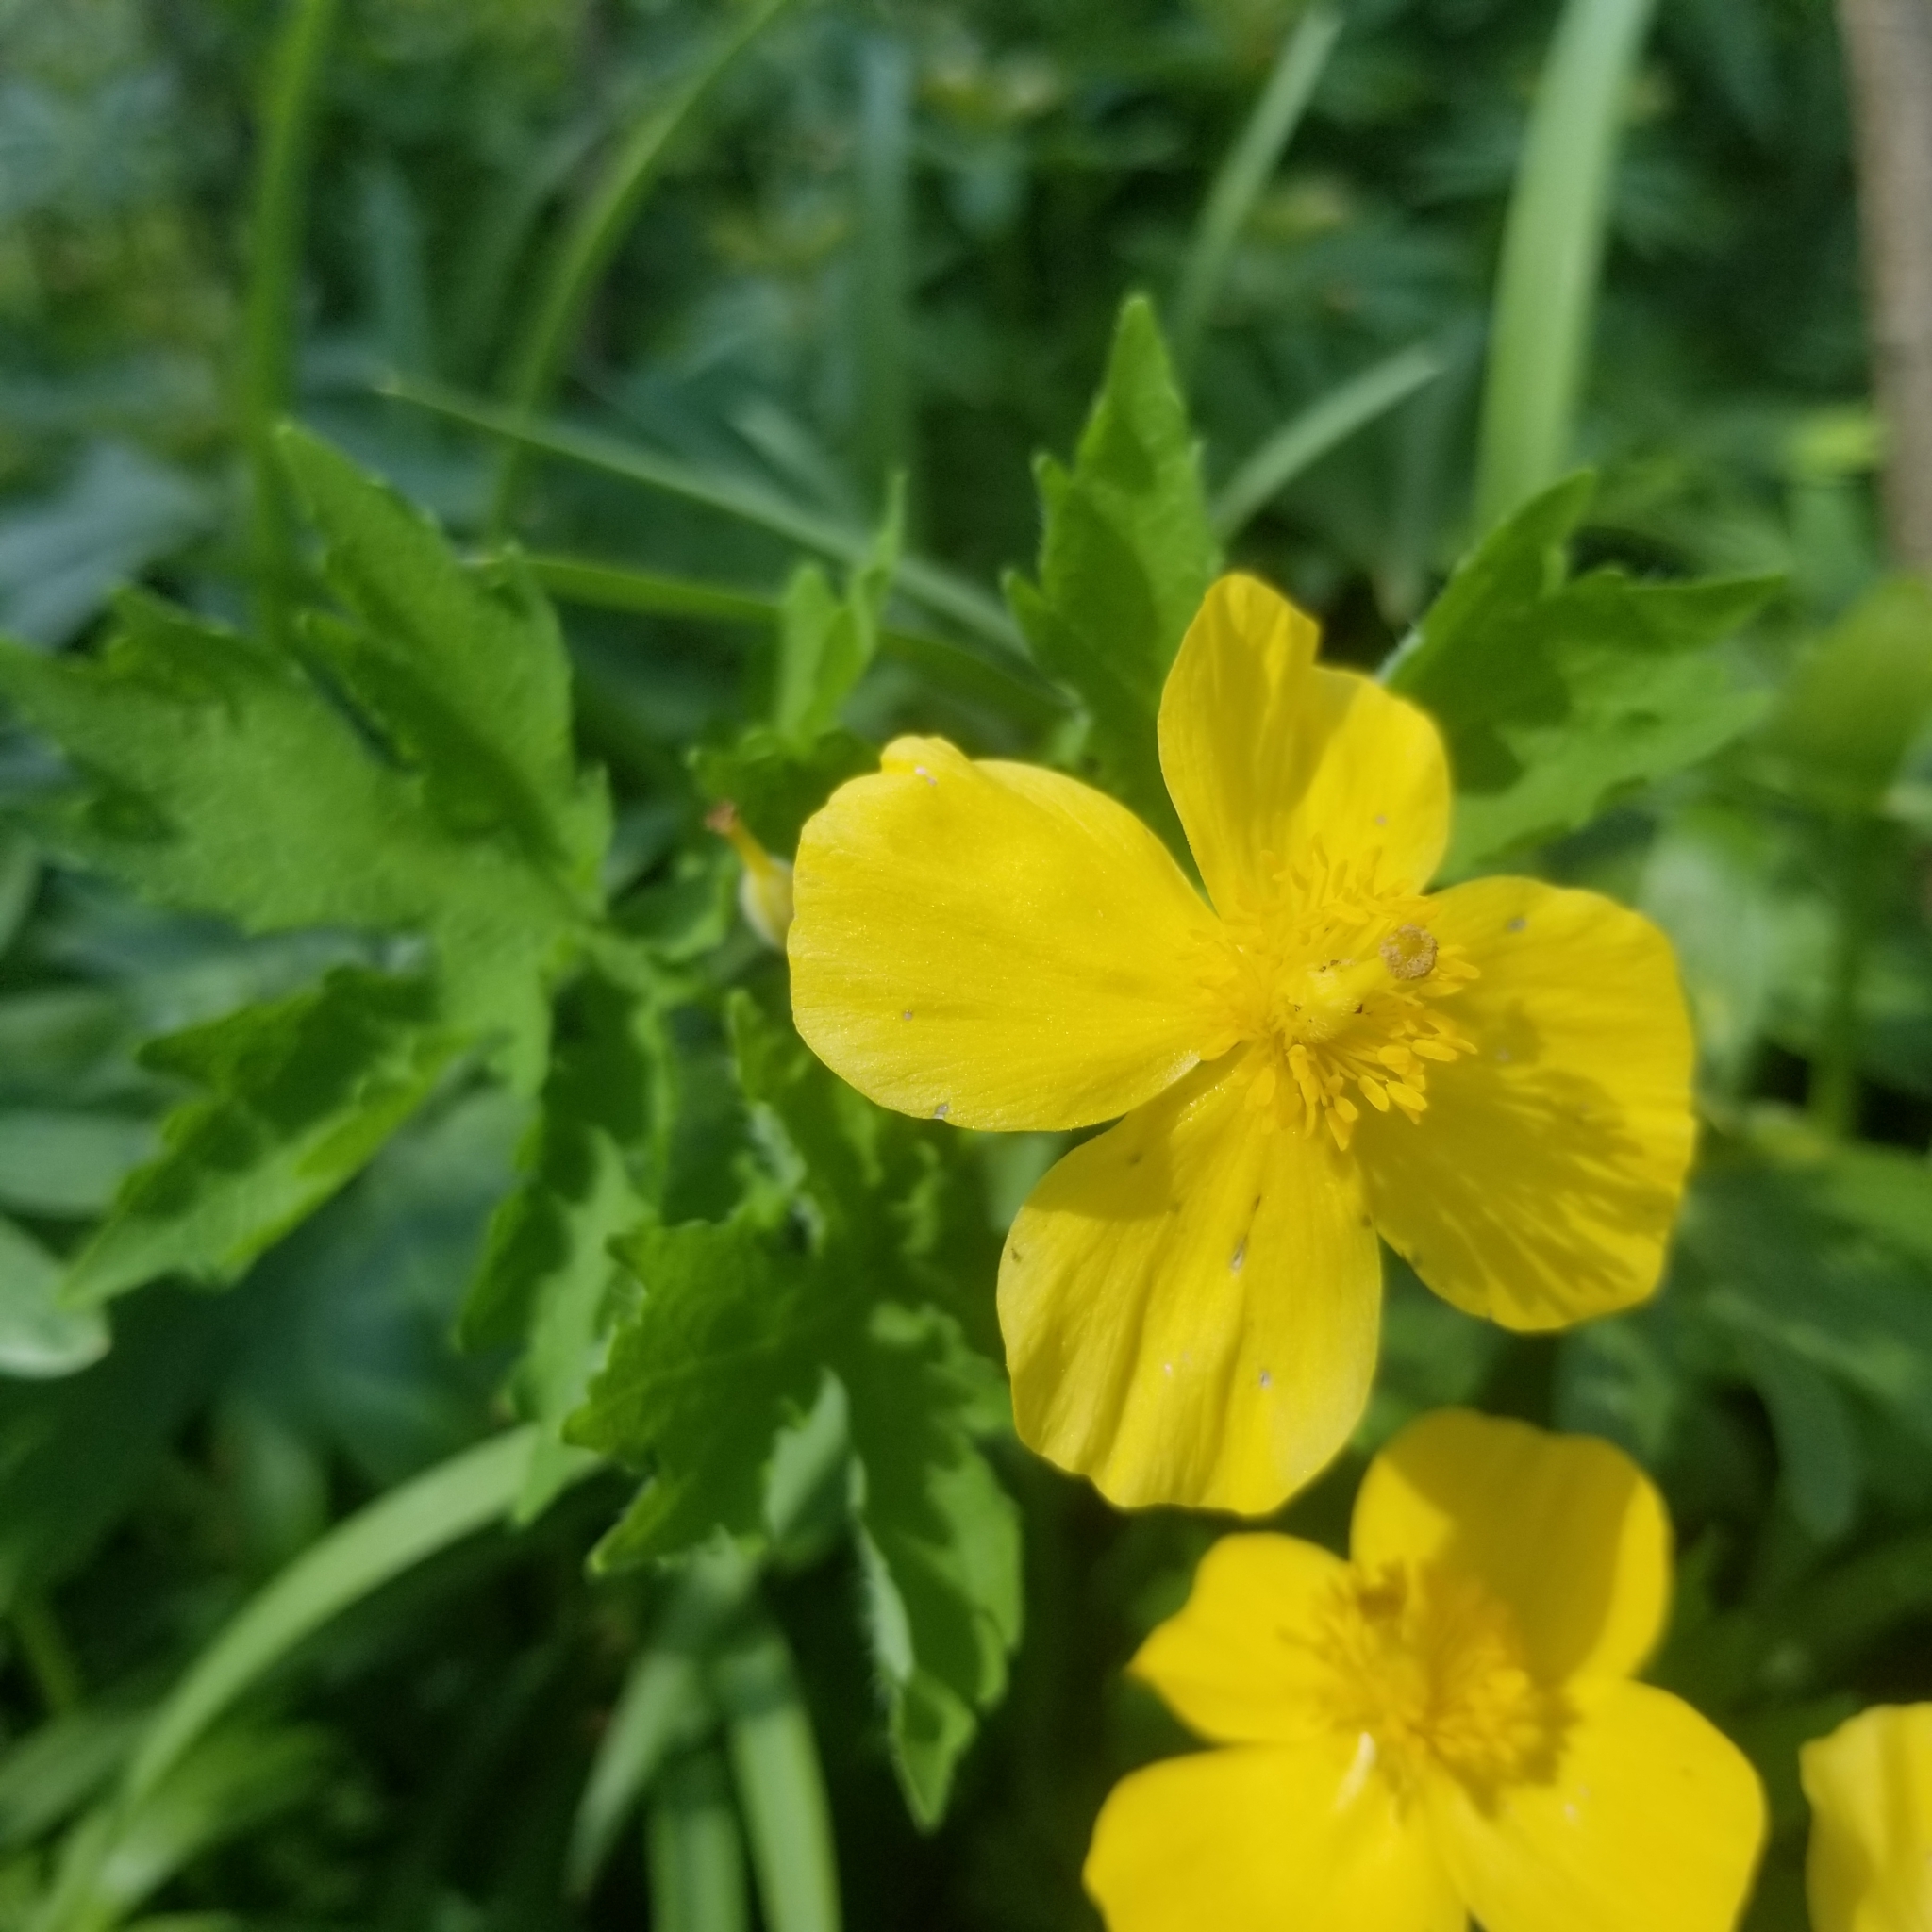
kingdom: Plantae
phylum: Tracheophyta
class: Magnoliopsida
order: Ranunculales
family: Papaveraceae
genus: Stylophorum
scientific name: Stylophorum diphyllum
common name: Celandine poppy
